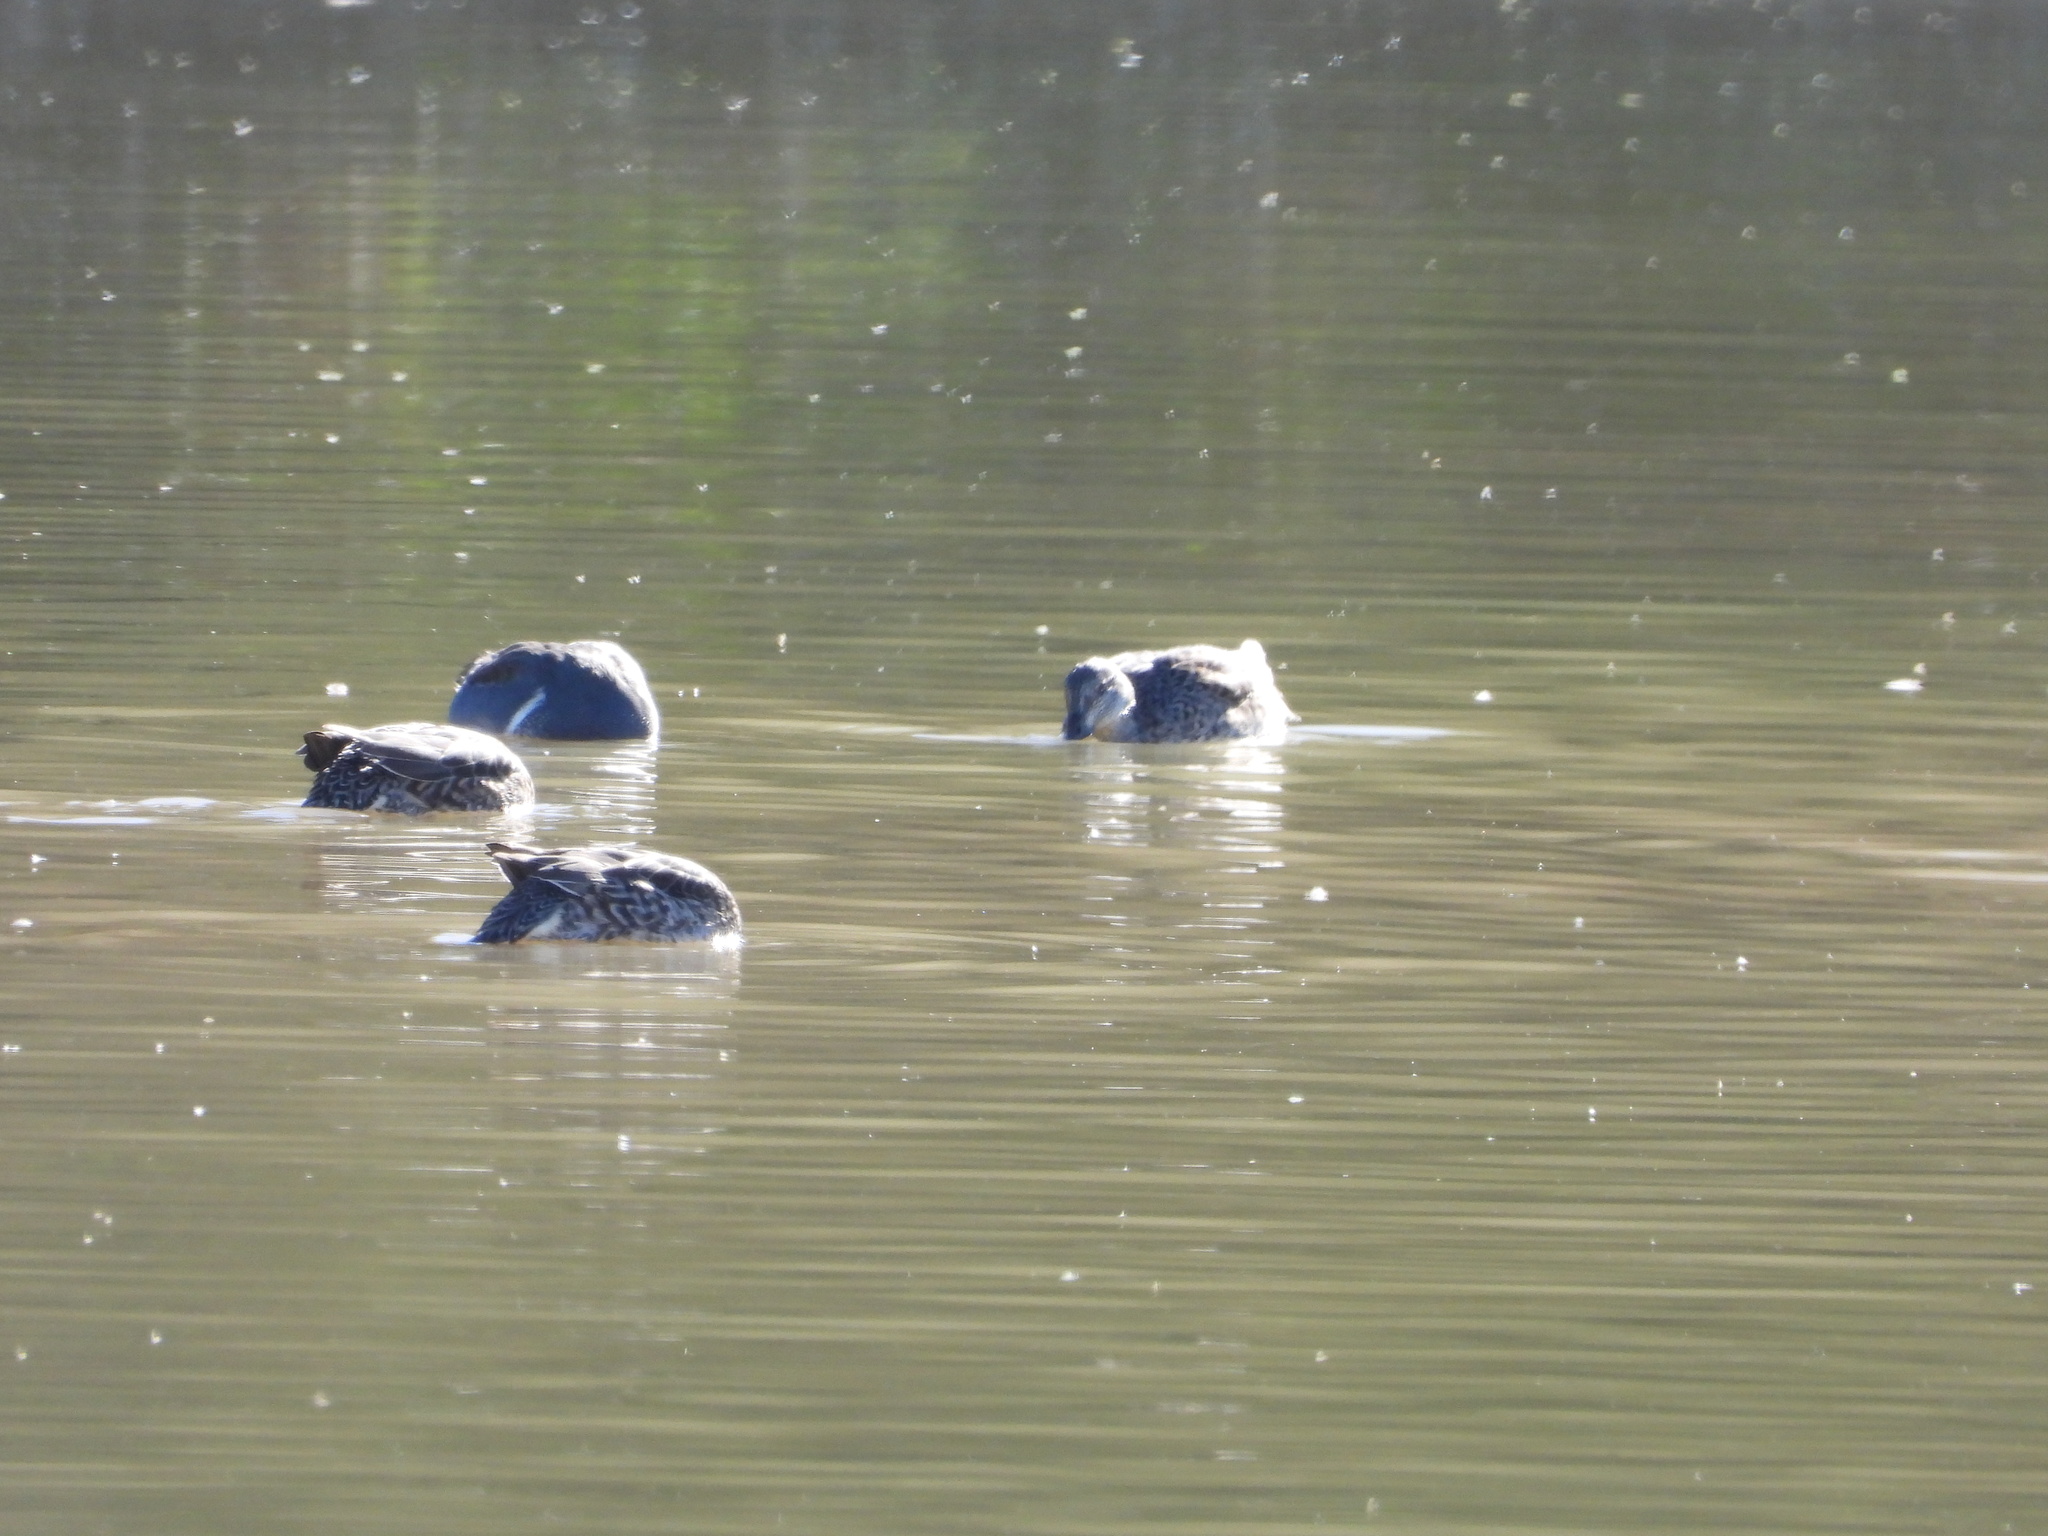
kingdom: Animalia
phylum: Chordata
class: Aves
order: Anseriformes
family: Anatidae
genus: Anas
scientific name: Anas crecca
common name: Eurasian teal
